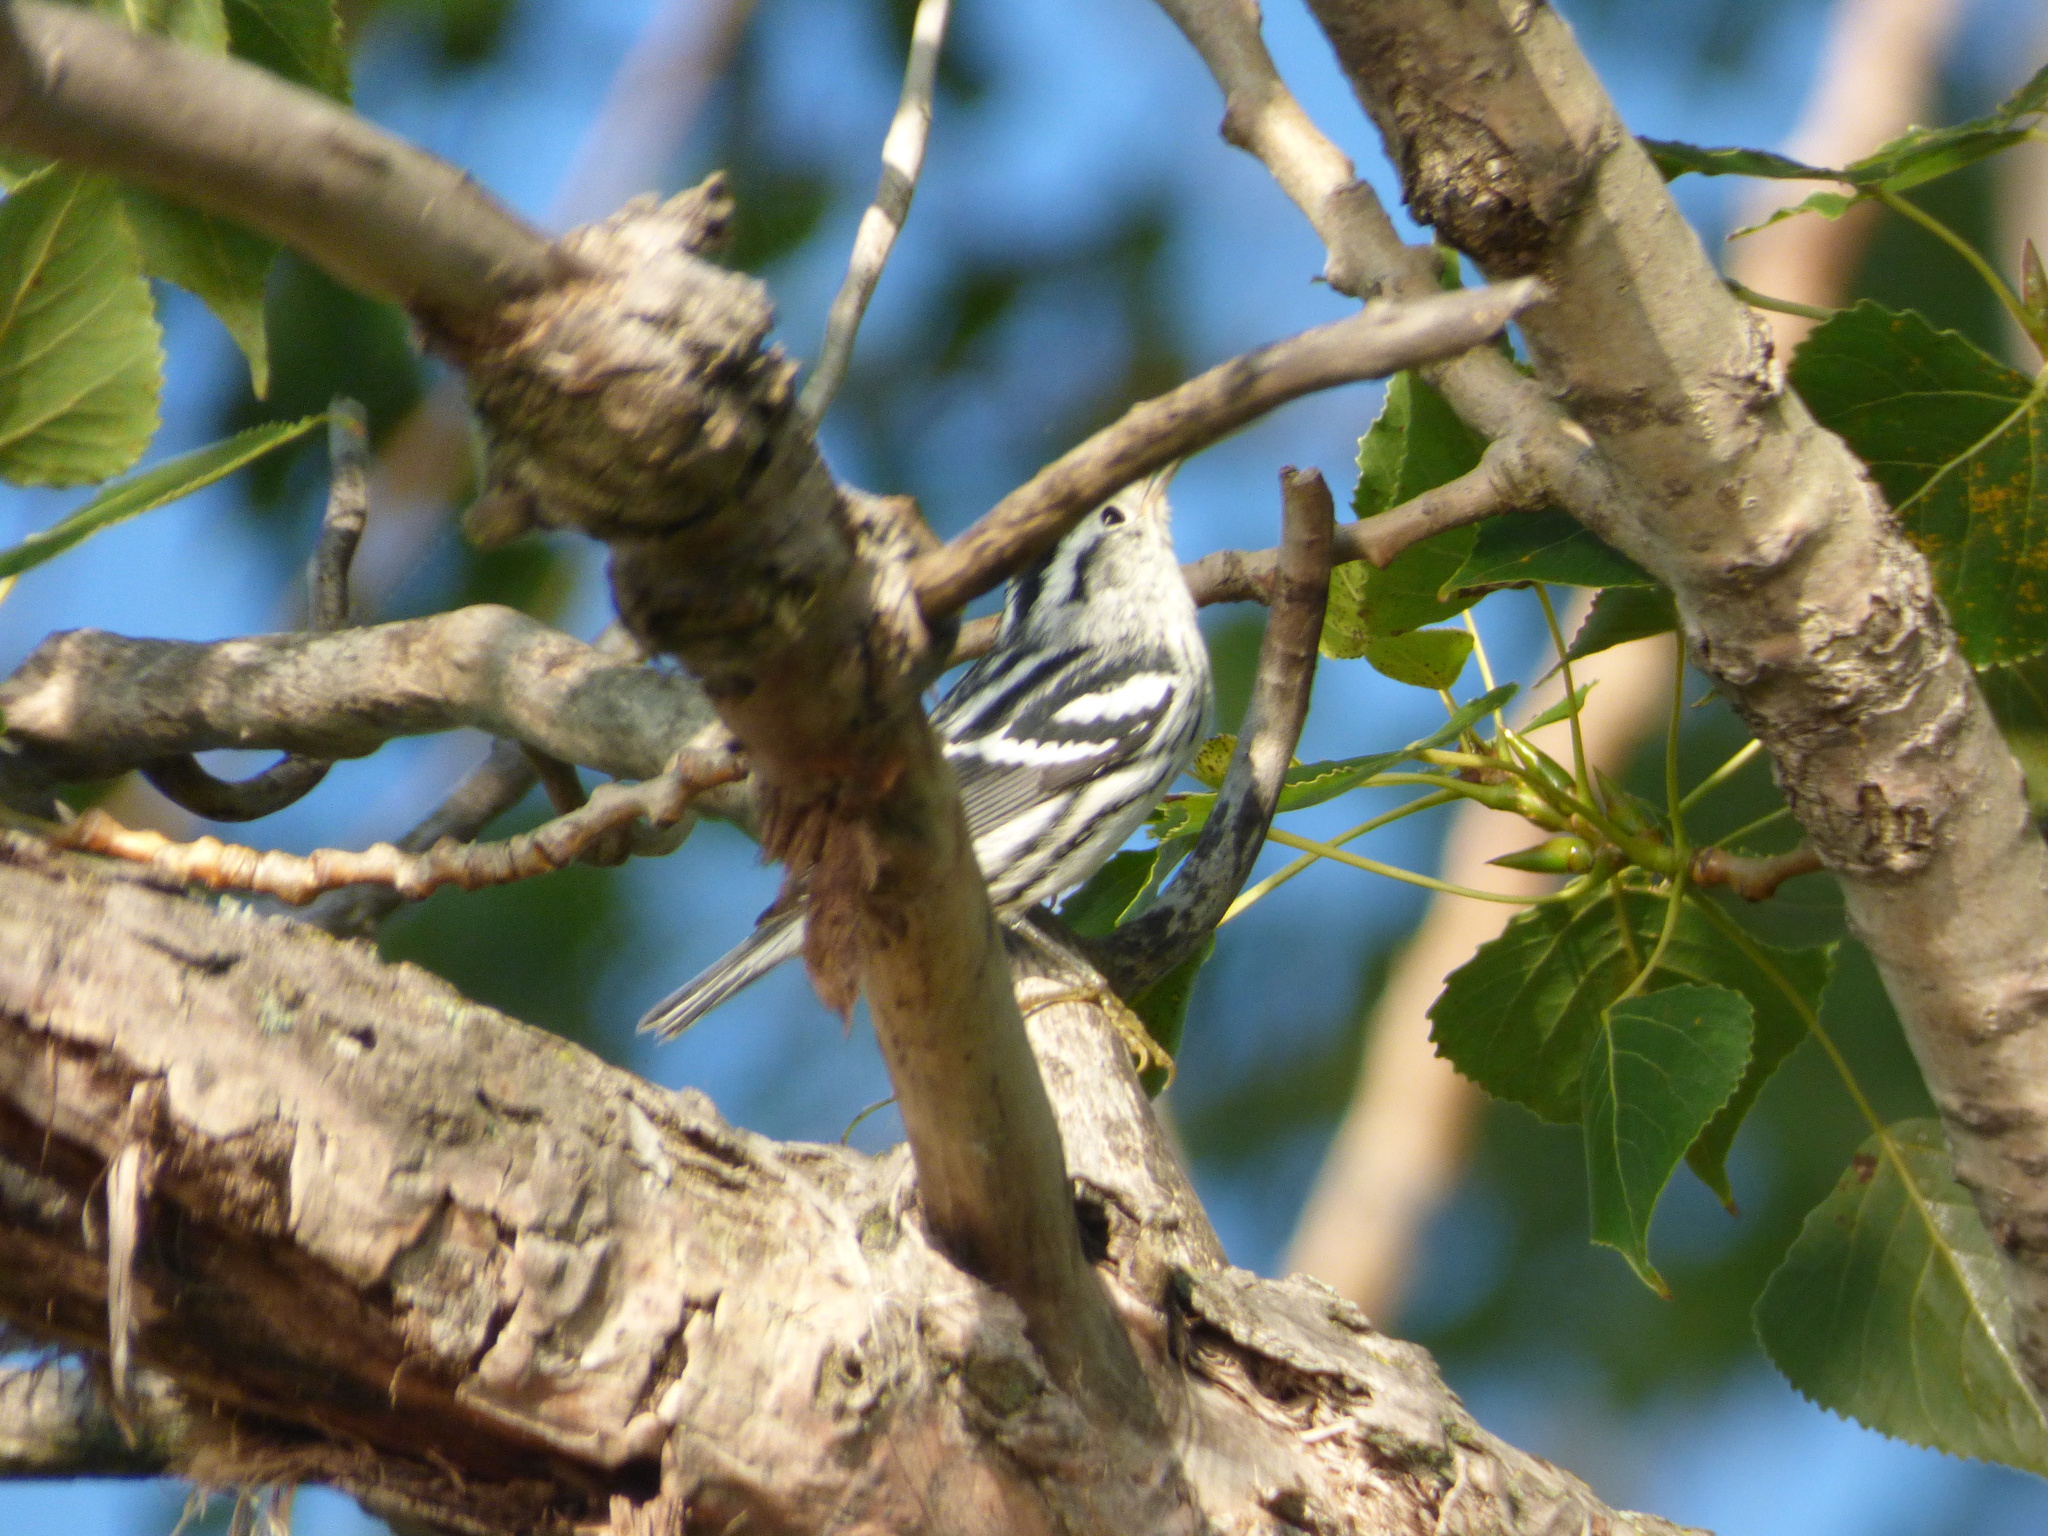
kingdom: Animalia
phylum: Chordata
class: Aves
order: Passeriformes
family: Parulidae
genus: Mniotilta
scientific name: Mniotilta varia
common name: Black-and-white warbler
